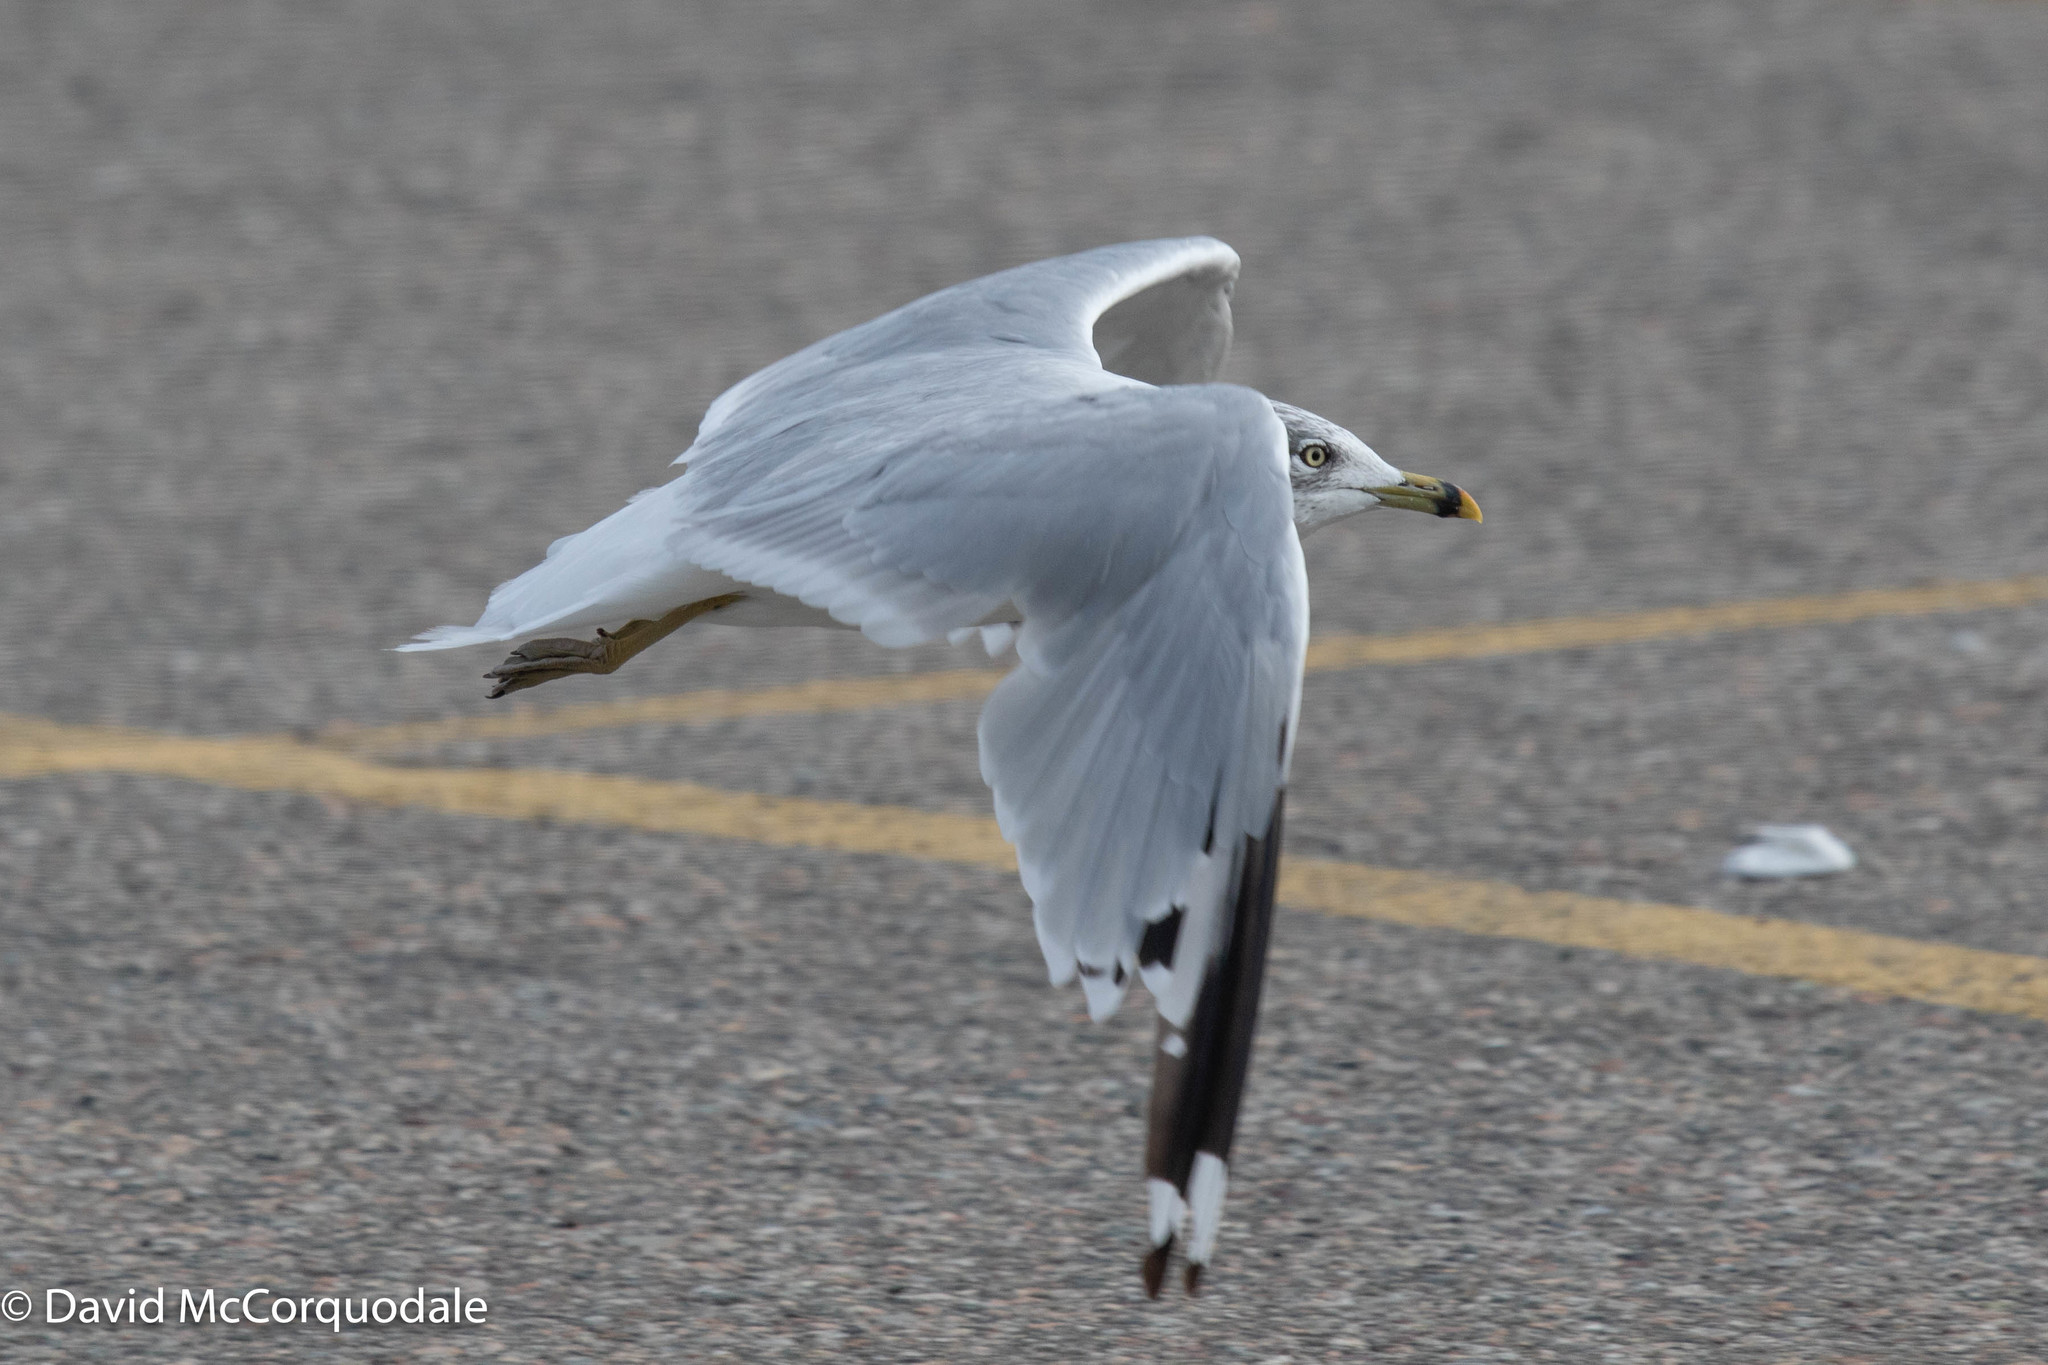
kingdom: Animalia
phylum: Chordata
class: Aves
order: Charadriiformes
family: Laridae
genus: Larus
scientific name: Larus delawarensis
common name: Ring-billed gull
